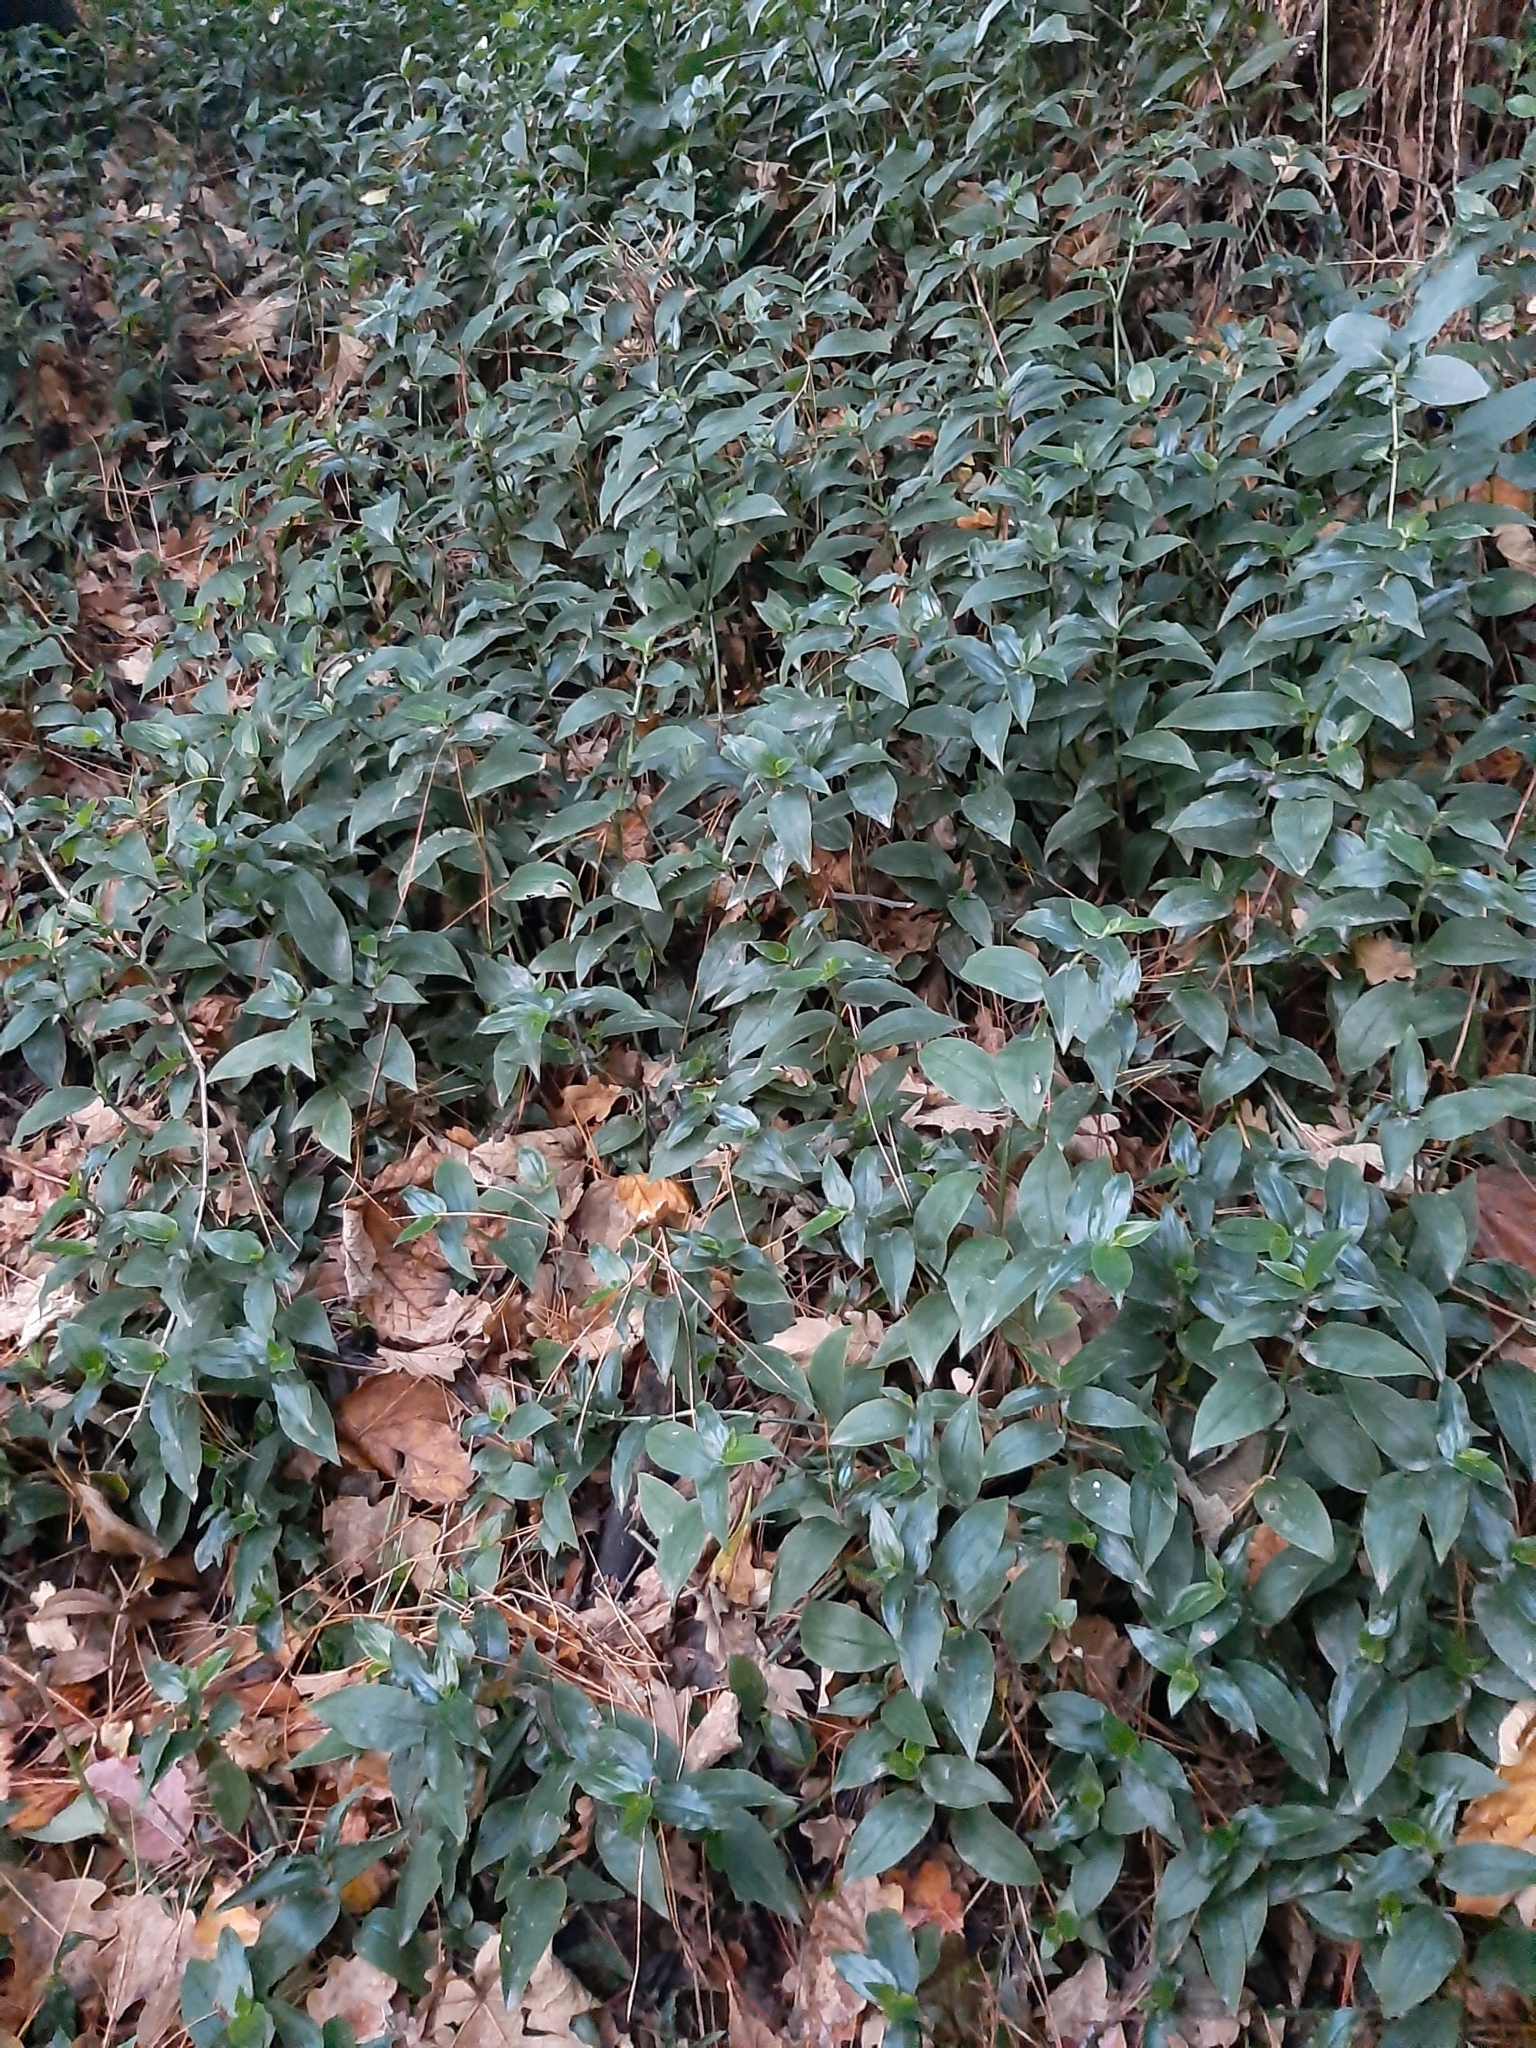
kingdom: Plantae
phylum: Tracheophyta
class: Liliopsida
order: Commelinales
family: Commelinaceae
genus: Tradescantia
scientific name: Tradescantia fluminensis
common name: Wandering-jew
